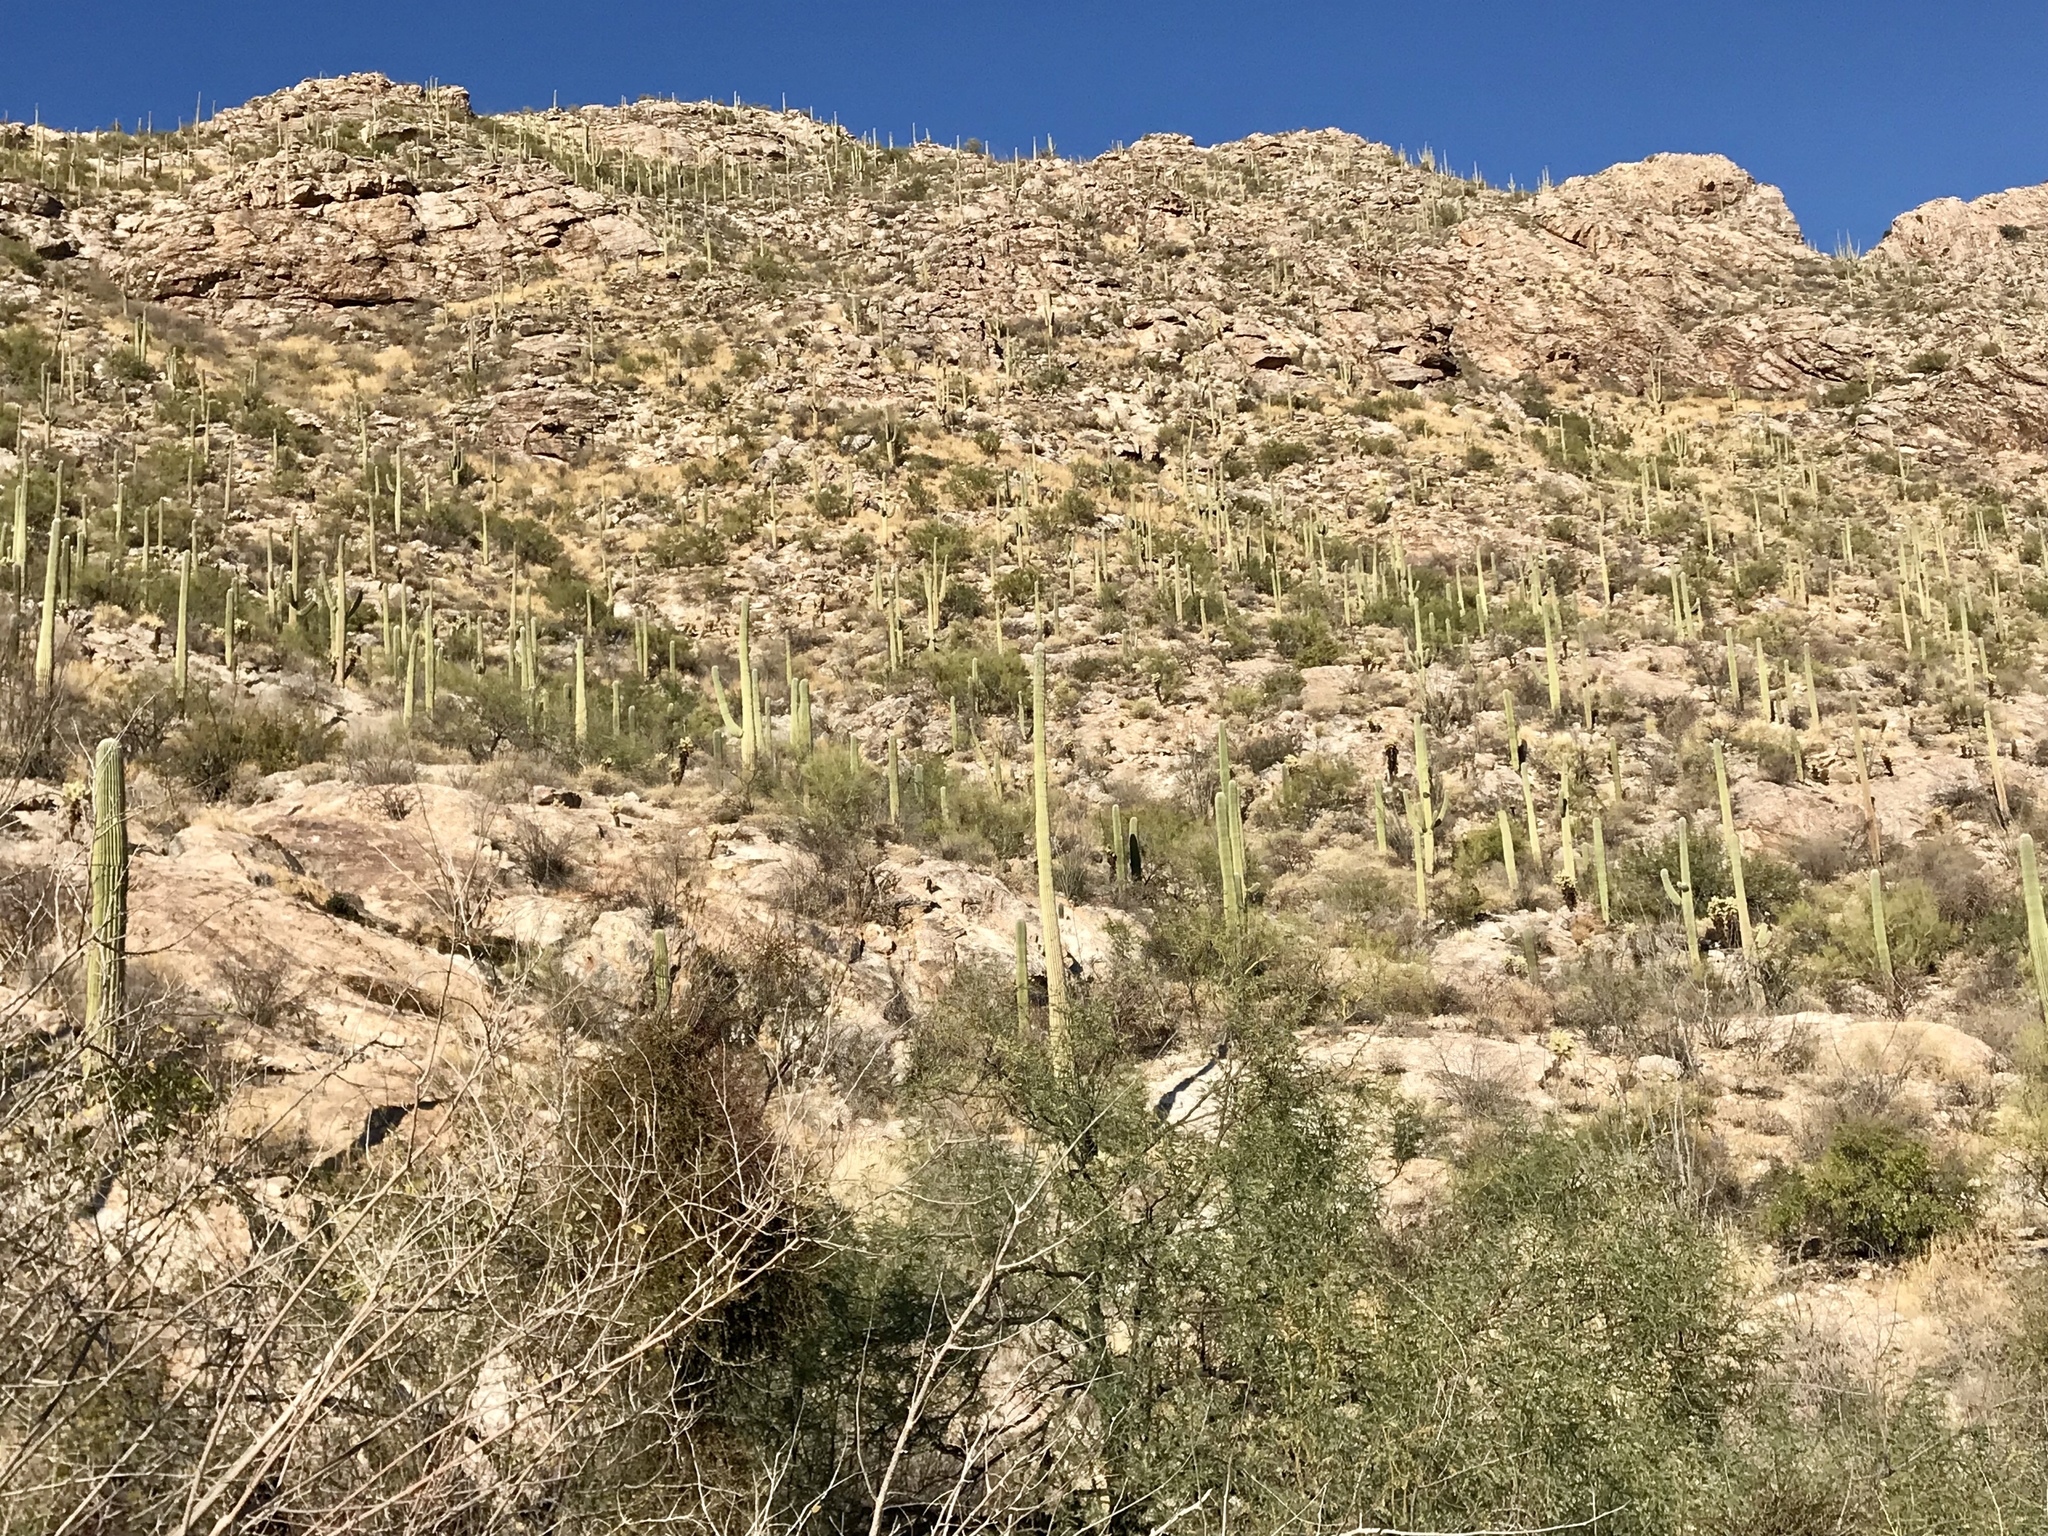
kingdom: Plantae
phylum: Tracheophyta
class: Magnoliopsida
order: Caryophyllales
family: Cactaceae
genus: Carnegiea
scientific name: Carnegiea gigantea
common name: Saguaro
